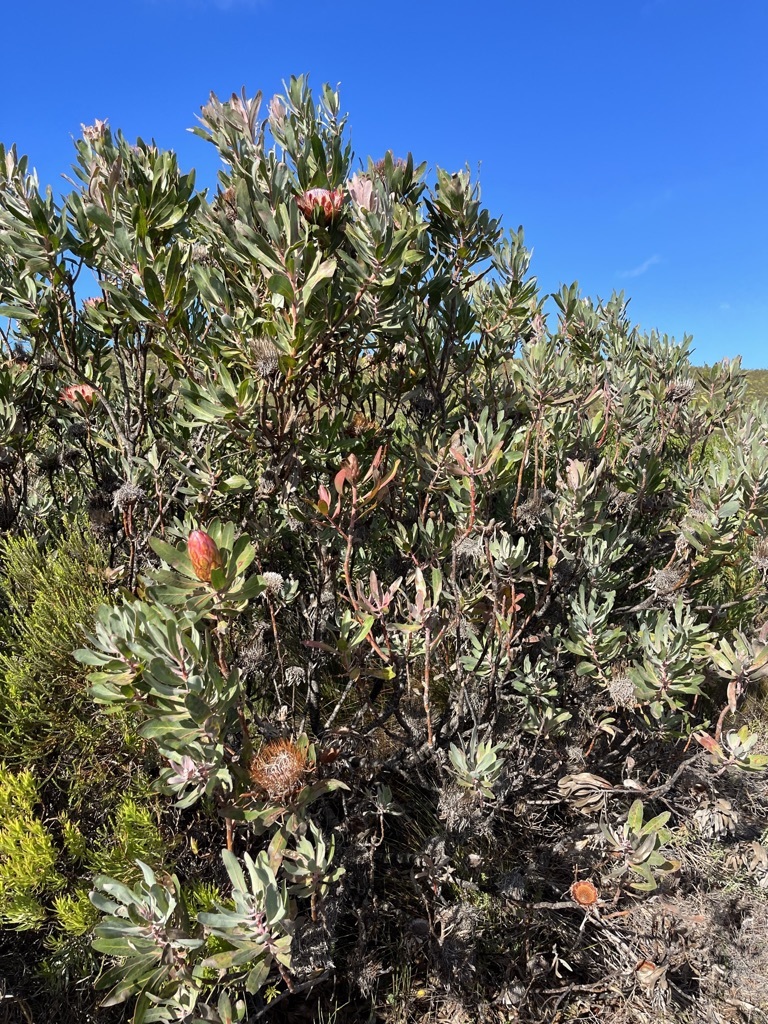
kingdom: Plantae
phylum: Tracheophyta
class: Magnoliopsida
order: Proteales
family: Proteaceae
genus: Protea
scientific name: Protea susannae
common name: Foetid-leaf sugarbush
